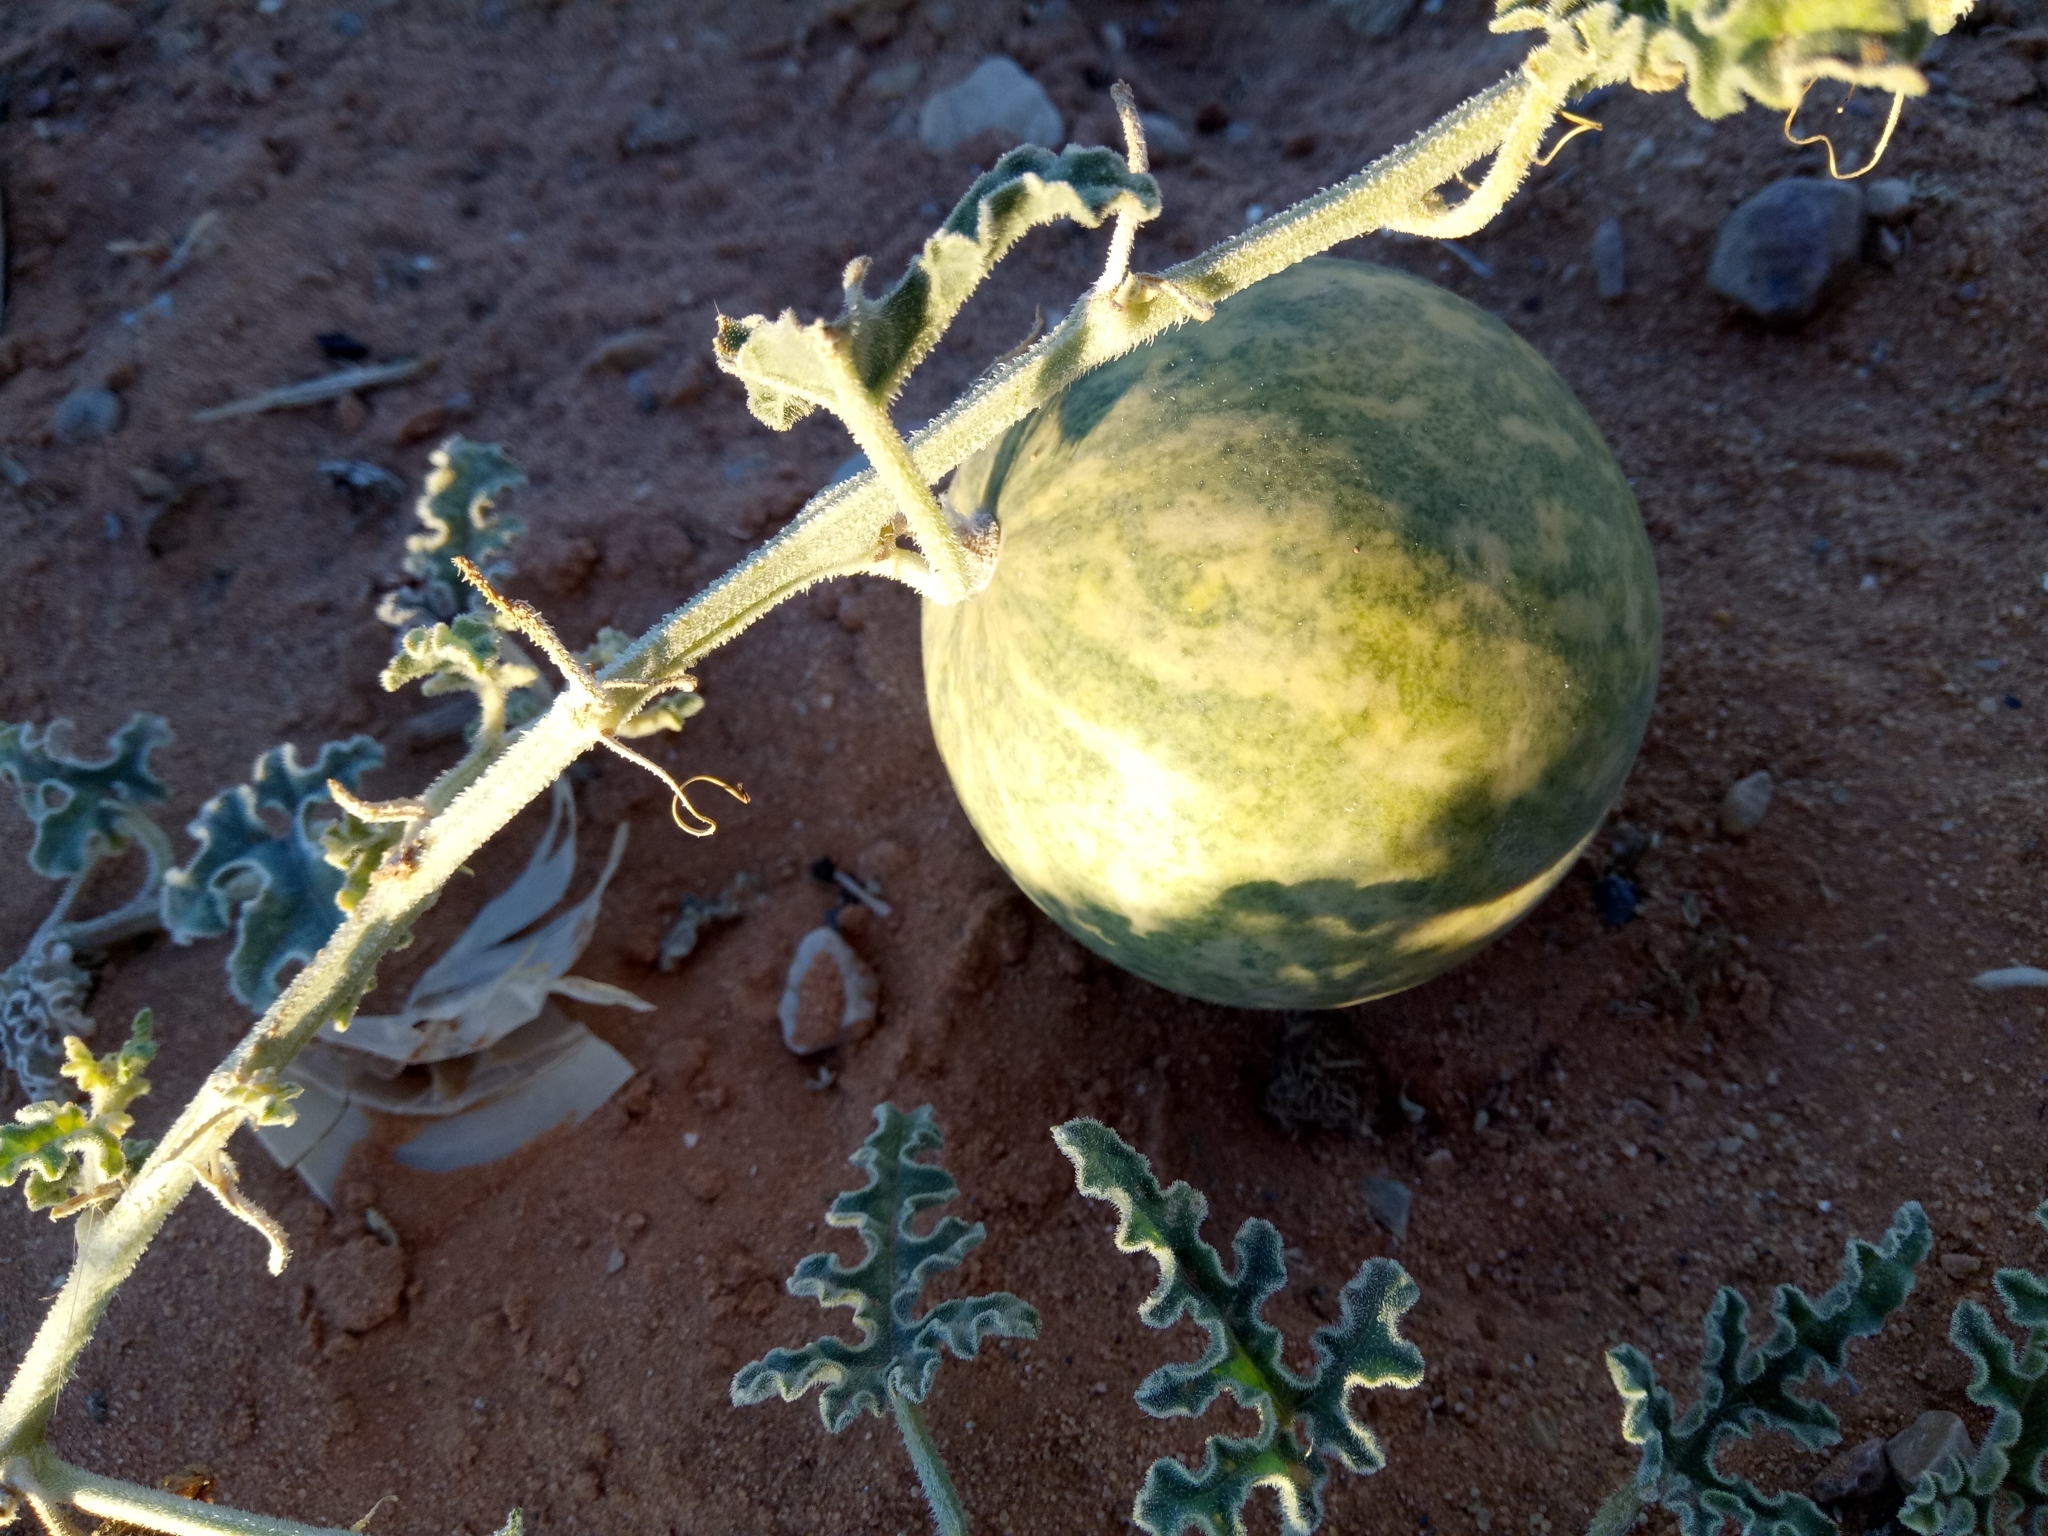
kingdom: Plantae
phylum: Tracheophyta
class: Magnoliopsida
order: Cucurbitales
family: Cucurbitaceae
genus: Citrullus
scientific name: Citrullus colocynthis
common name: Colocynth
